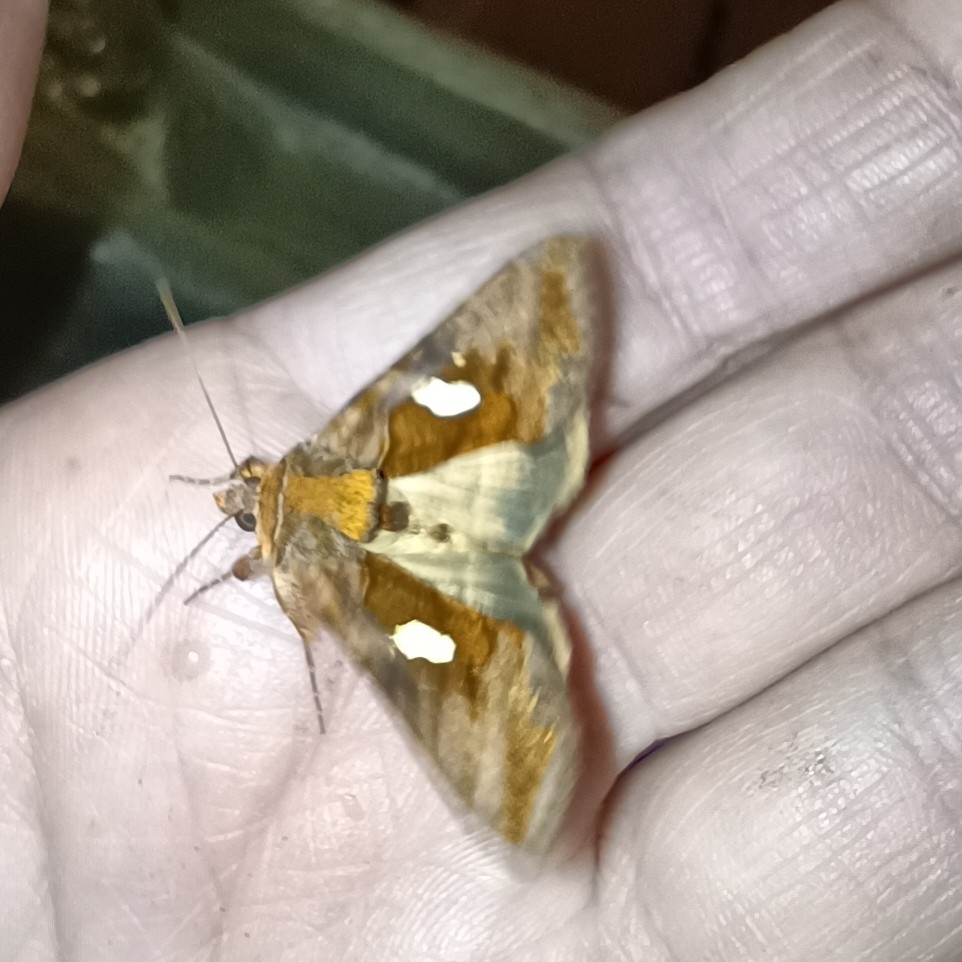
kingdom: Animalia
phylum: Arthropoda
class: Insecta
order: Lepidoptera
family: Noctuidae
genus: Autographa
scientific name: Autographa excelsa
